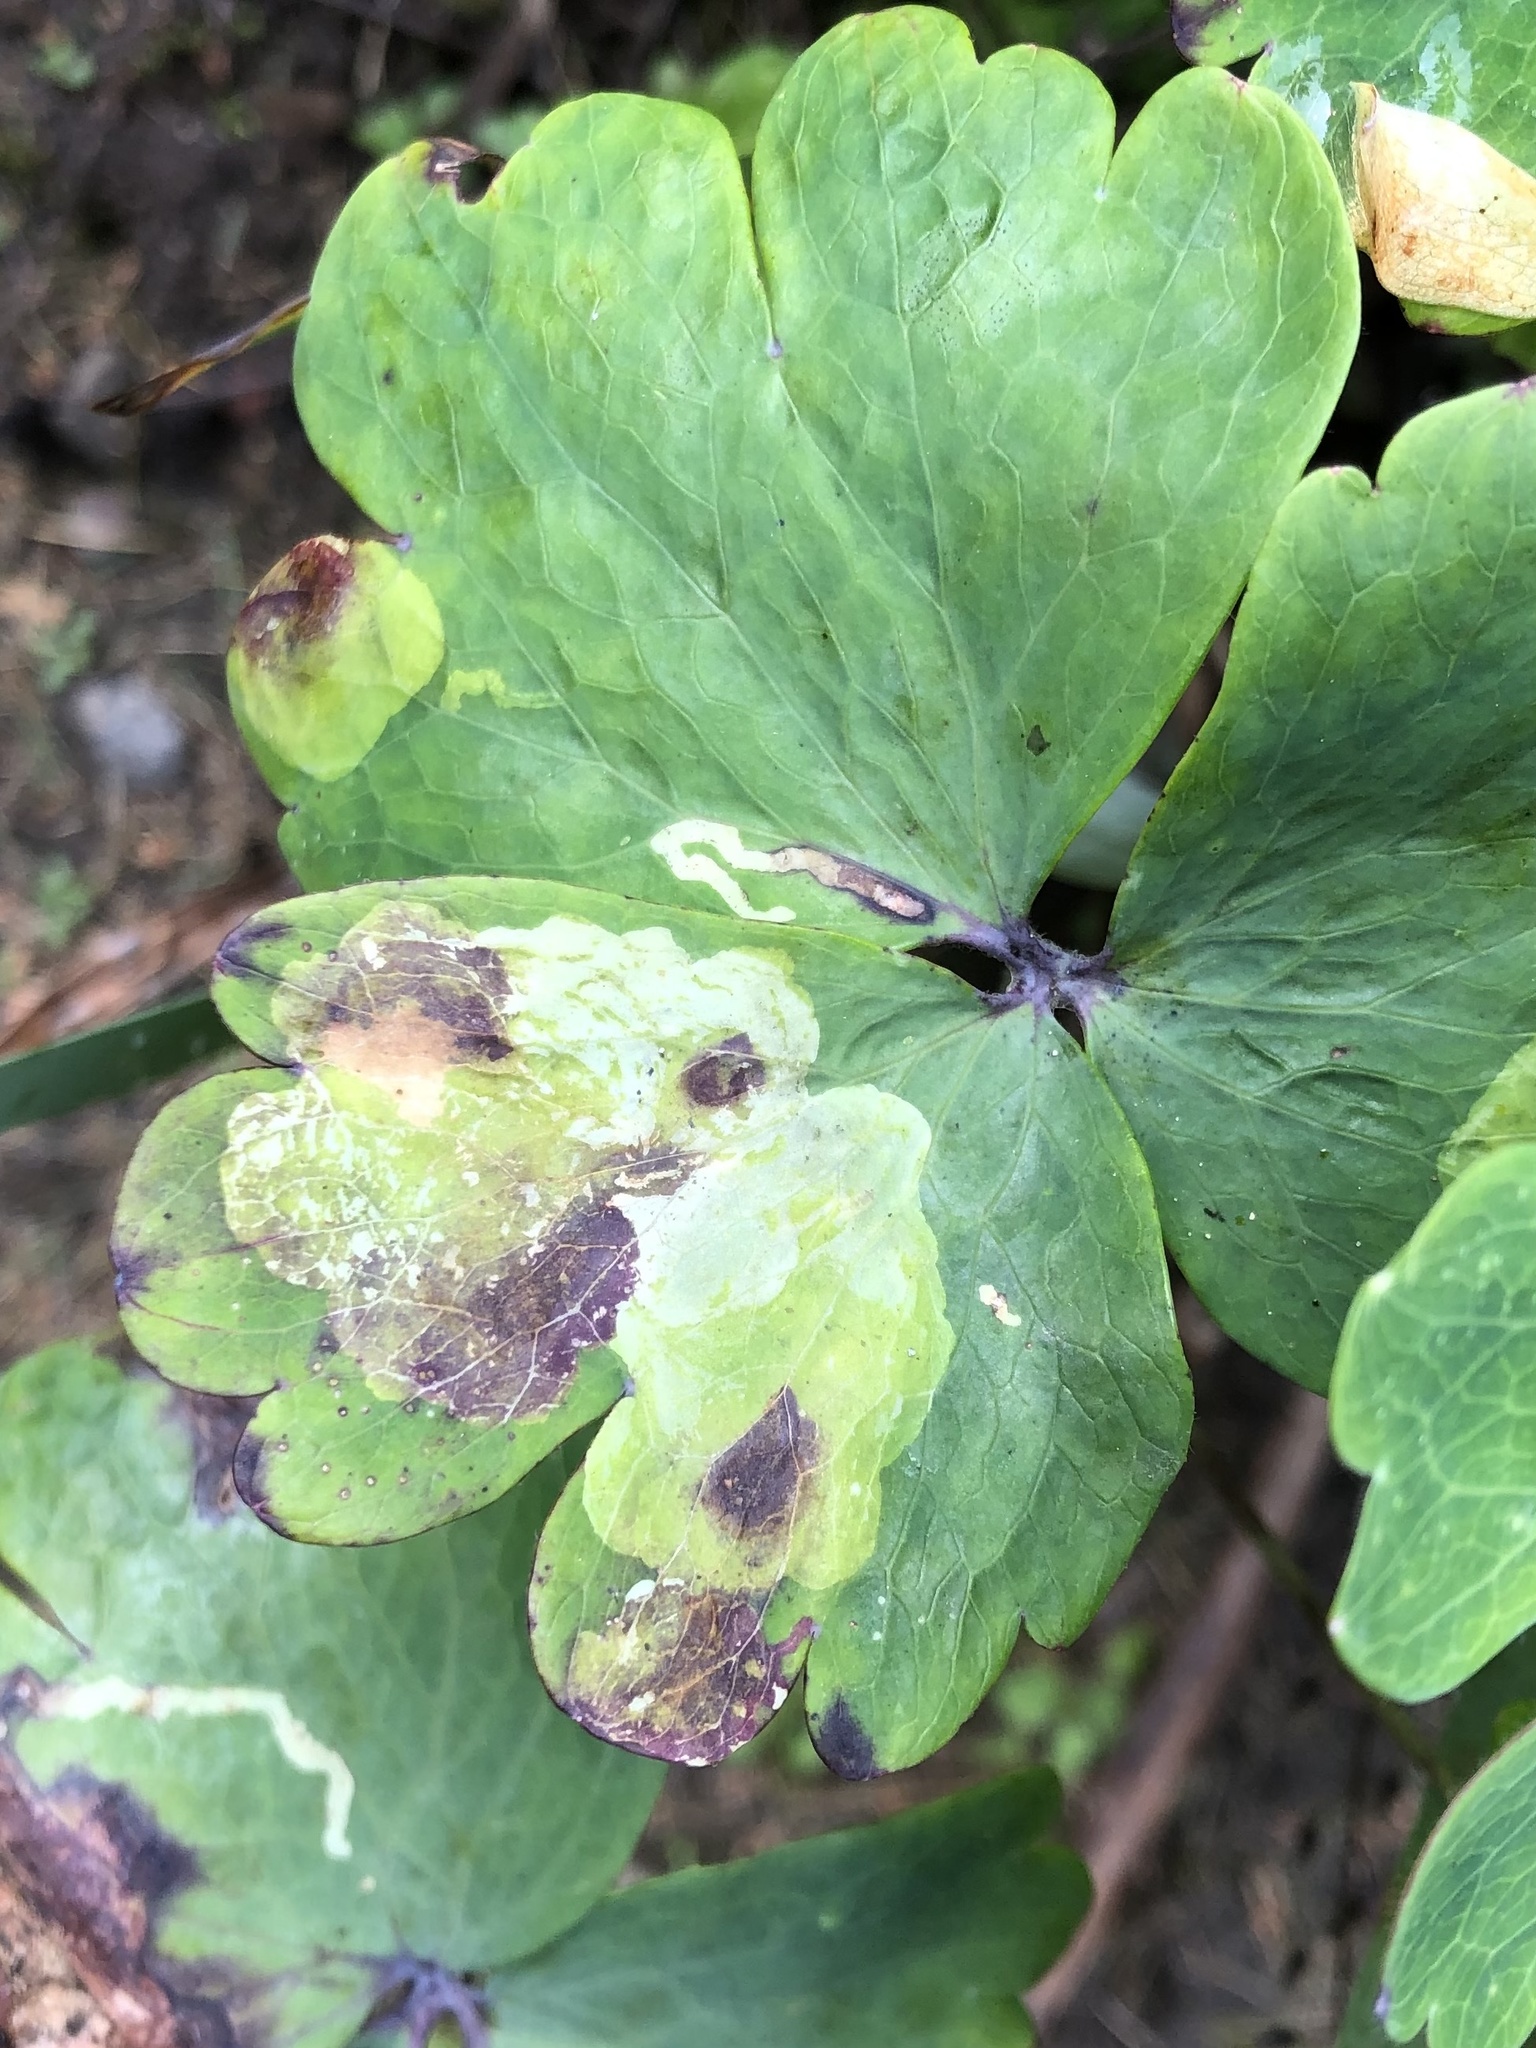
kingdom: Animalia
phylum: Arthropoda
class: Insecta
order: Diptera
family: Agromyzidae
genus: Phytomyza
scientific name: Phytomyza aquilegiana
